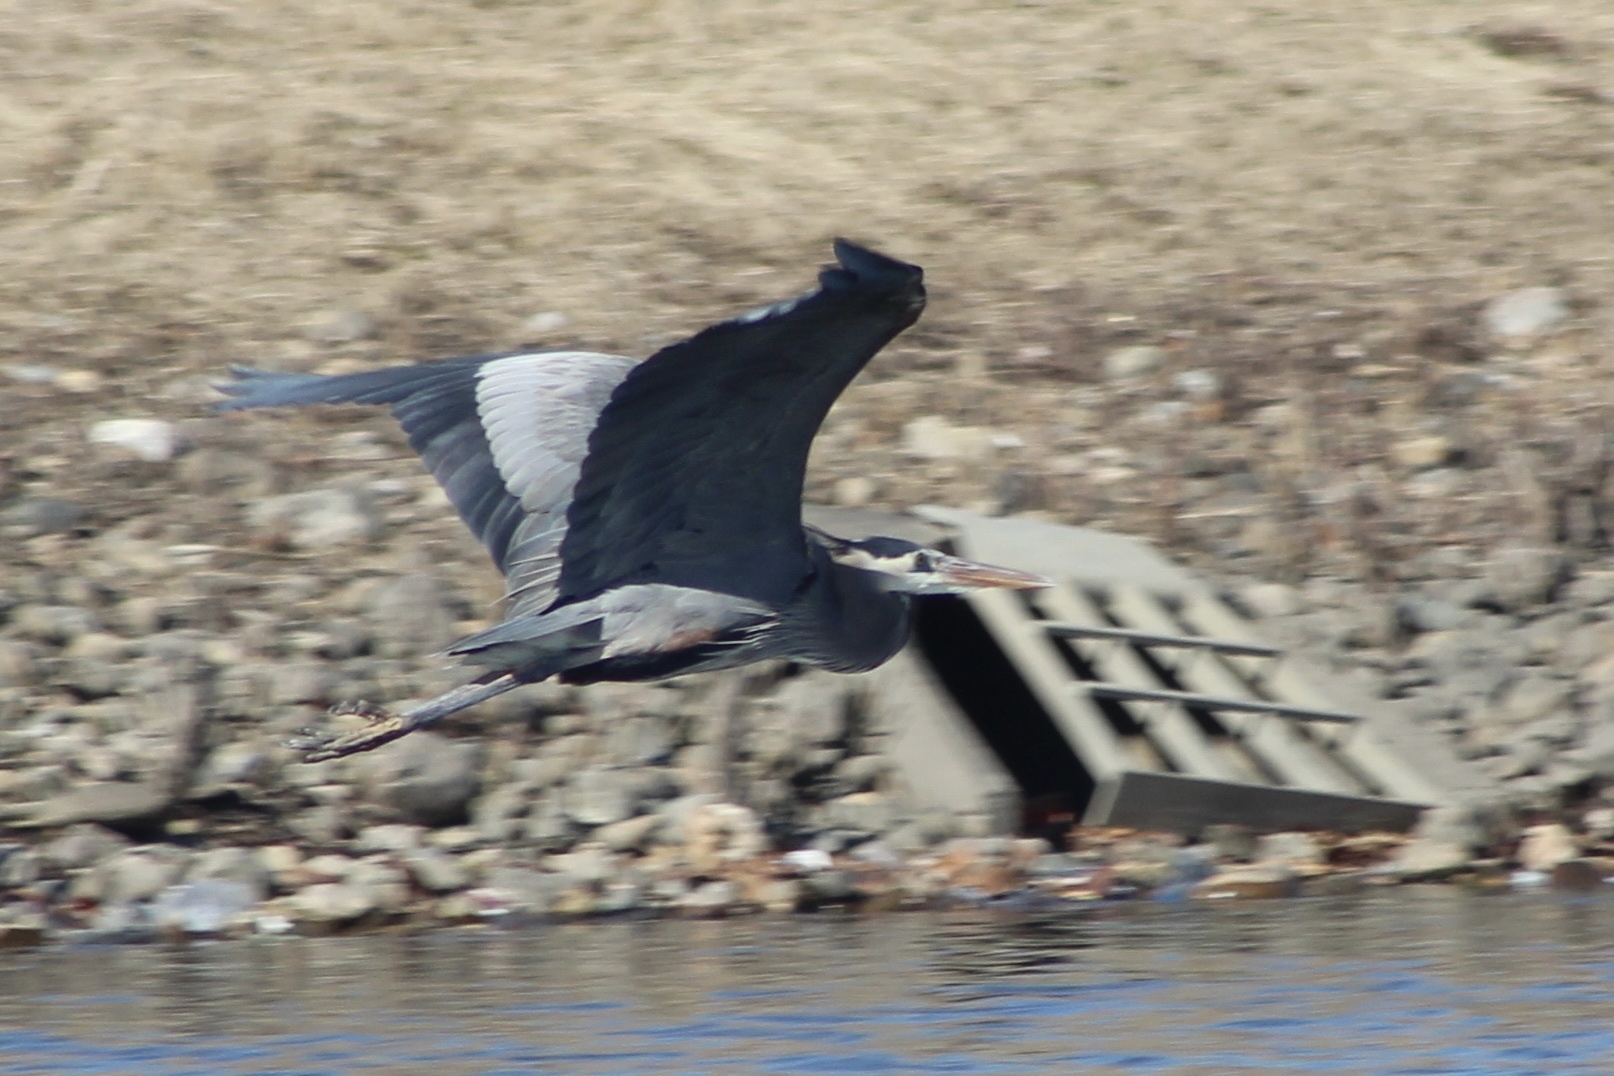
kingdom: Animalia
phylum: Chordata
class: Aves
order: Pelecaniformes
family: Ardeidae
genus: Ardea
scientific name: Ardea herodias
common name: Great blue heron
